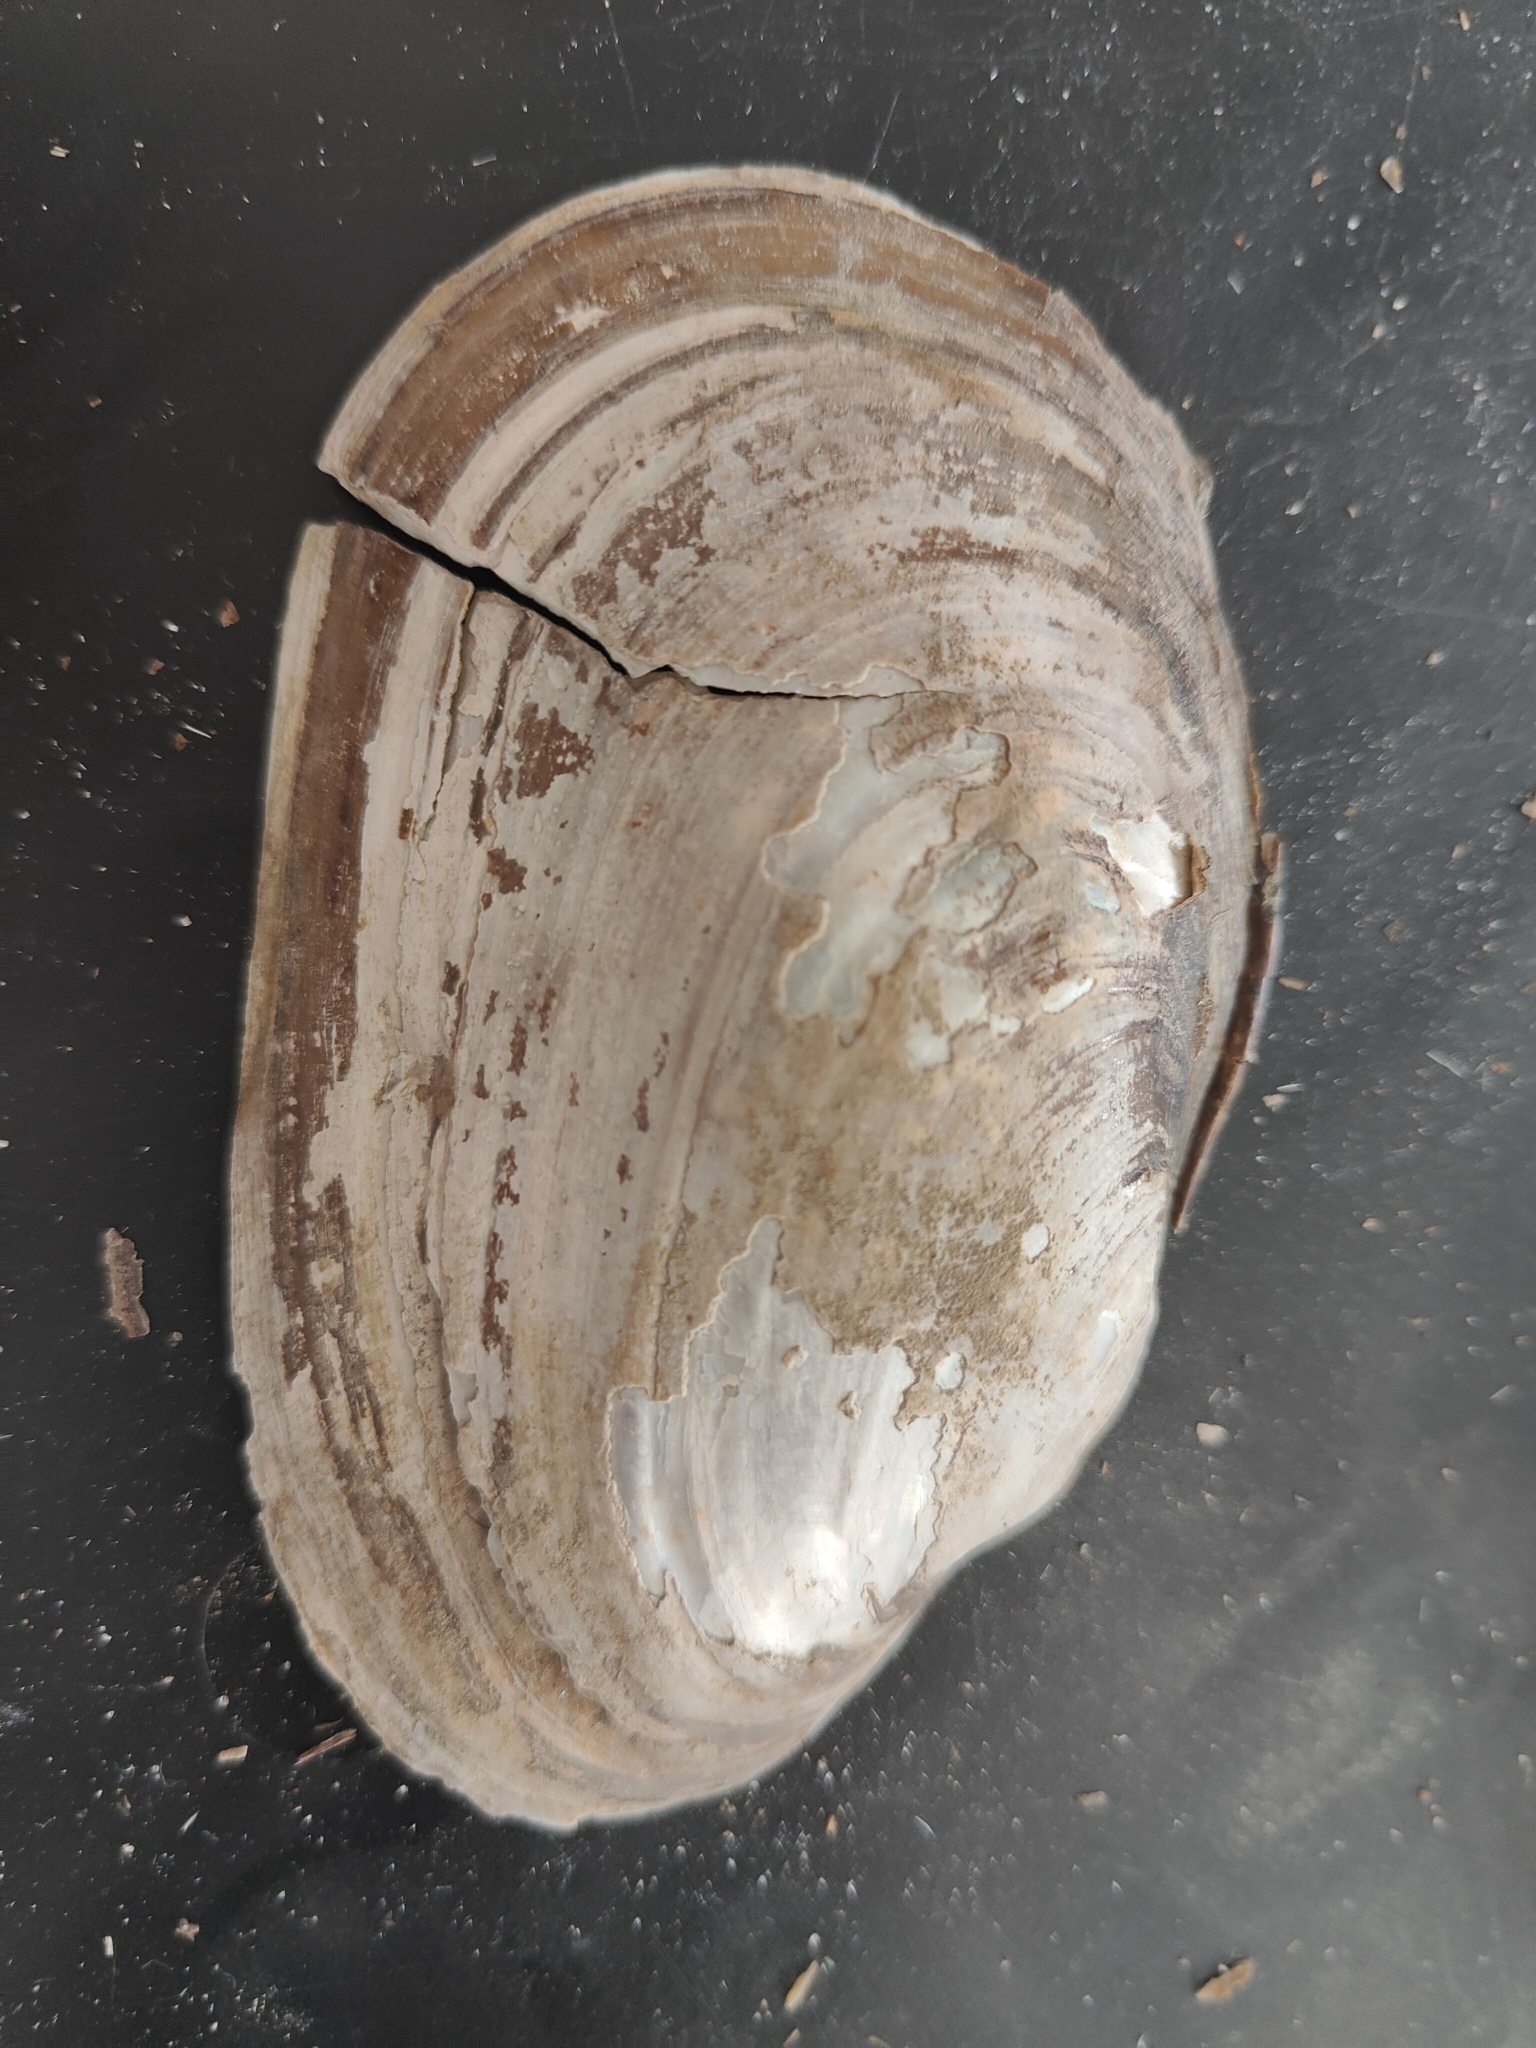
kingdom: Animalia
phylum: Mollusca
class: Bivalvia
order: Unionida
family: Unionidae
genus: Potamilus
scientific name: Potamilus fragilis
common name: Fragile papershell
